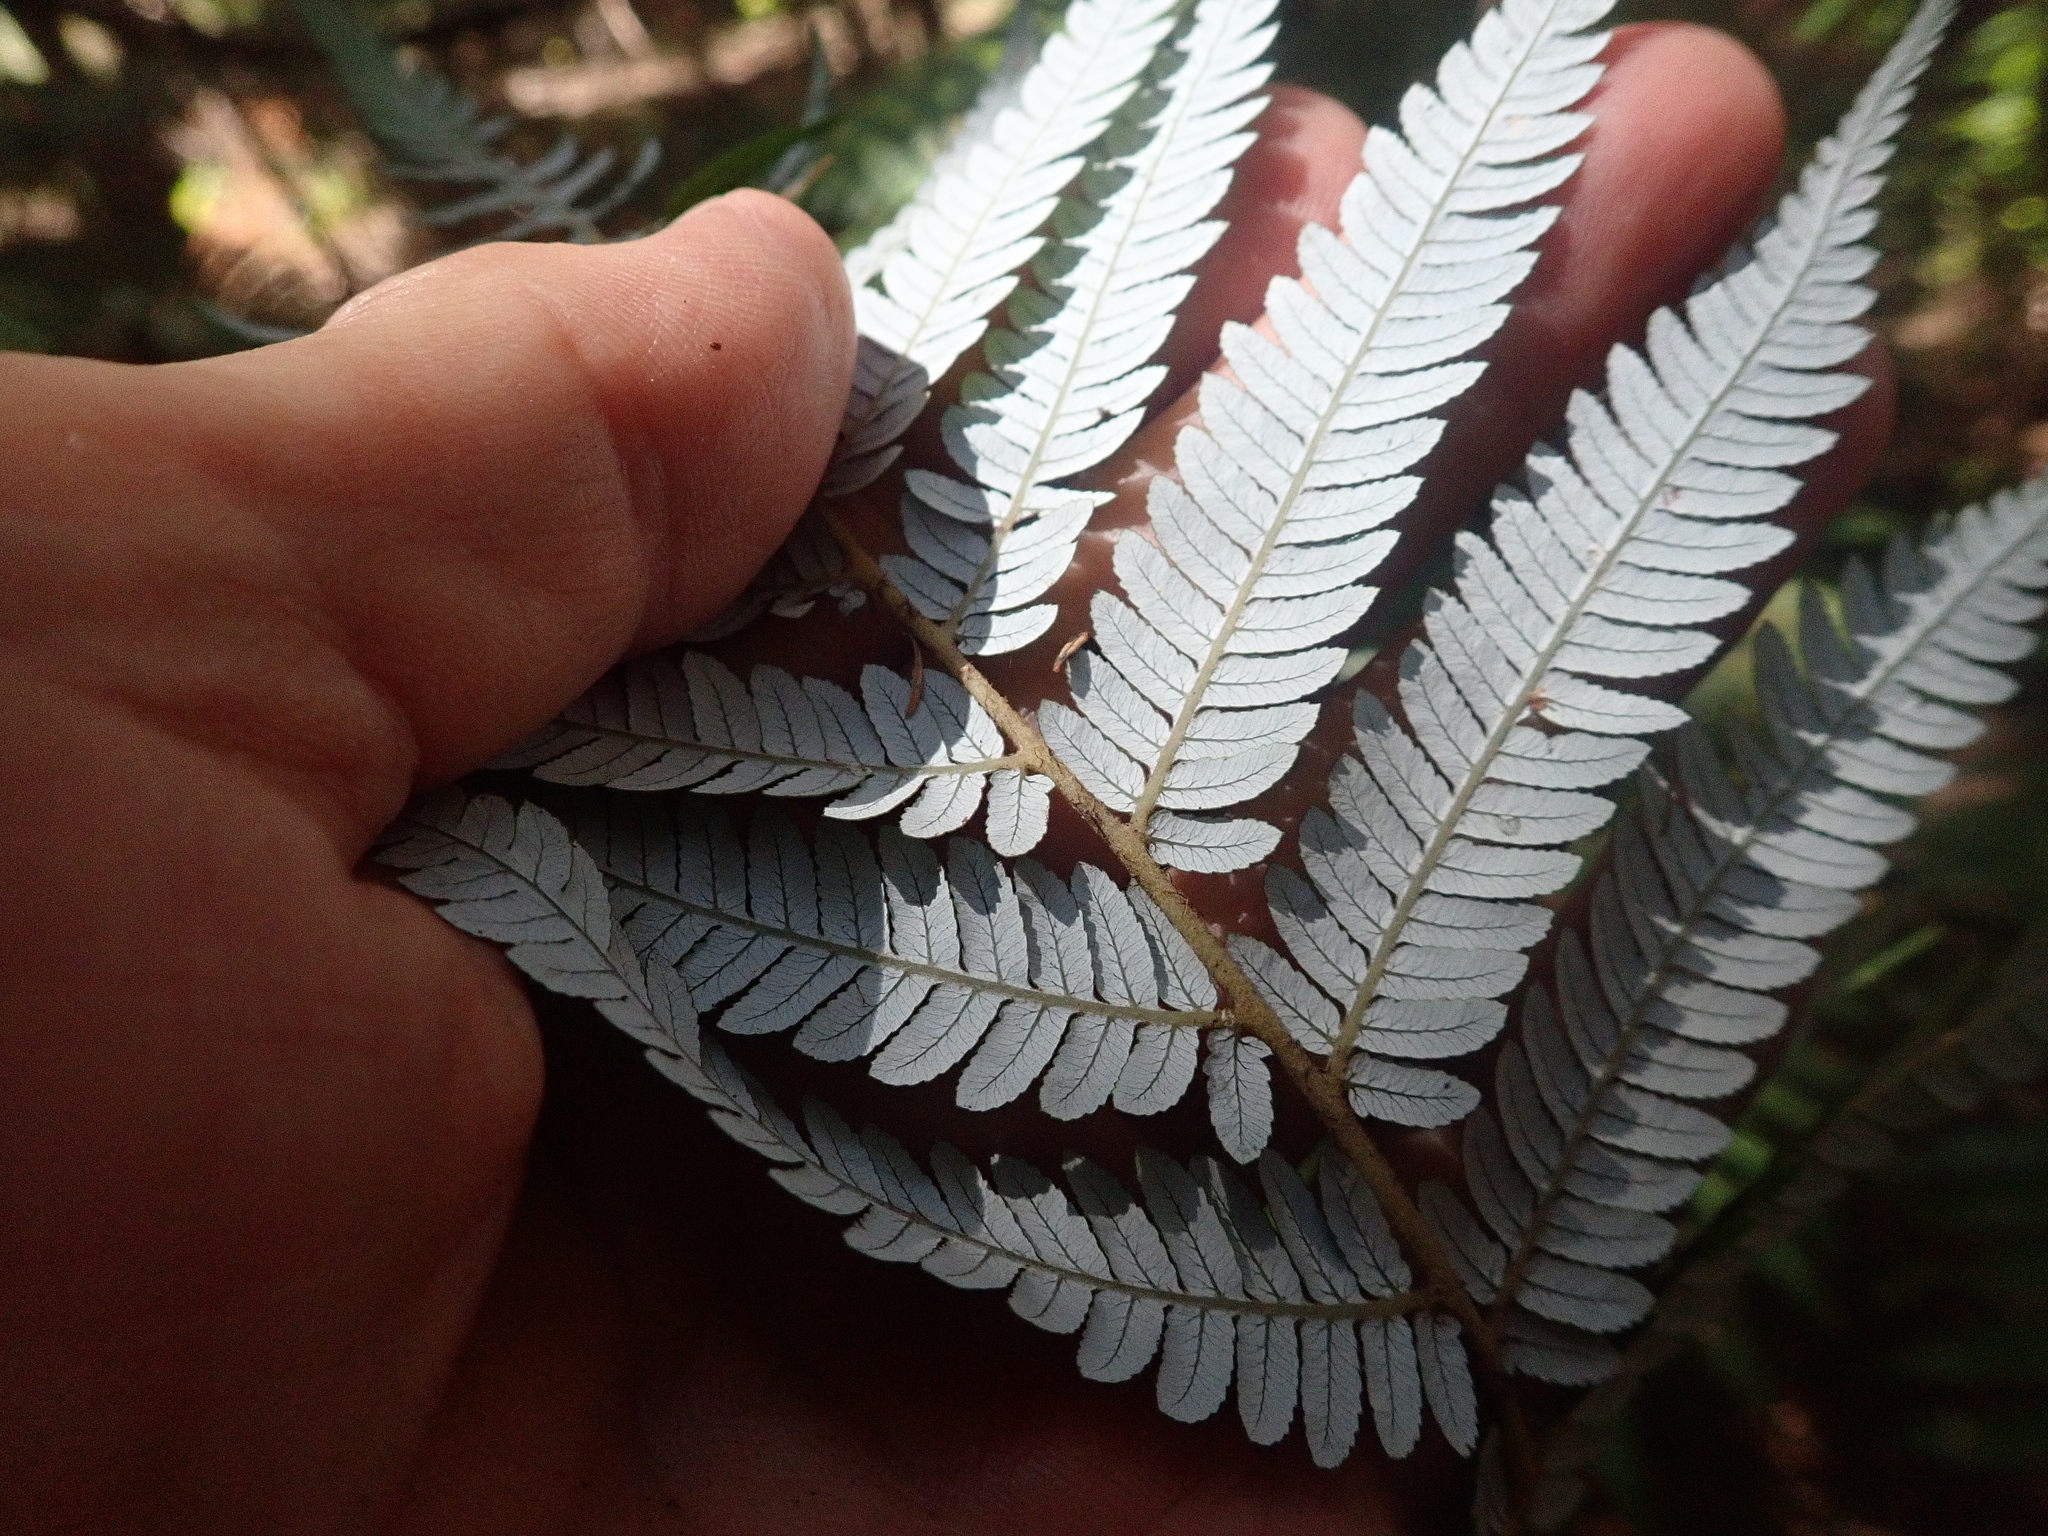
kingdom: Plantae
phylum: Tracheophyta
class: Polypodiopsida
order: Cyatheales
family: Cyatheaceae
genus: Alsophila
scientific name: Alsophila dealbata
